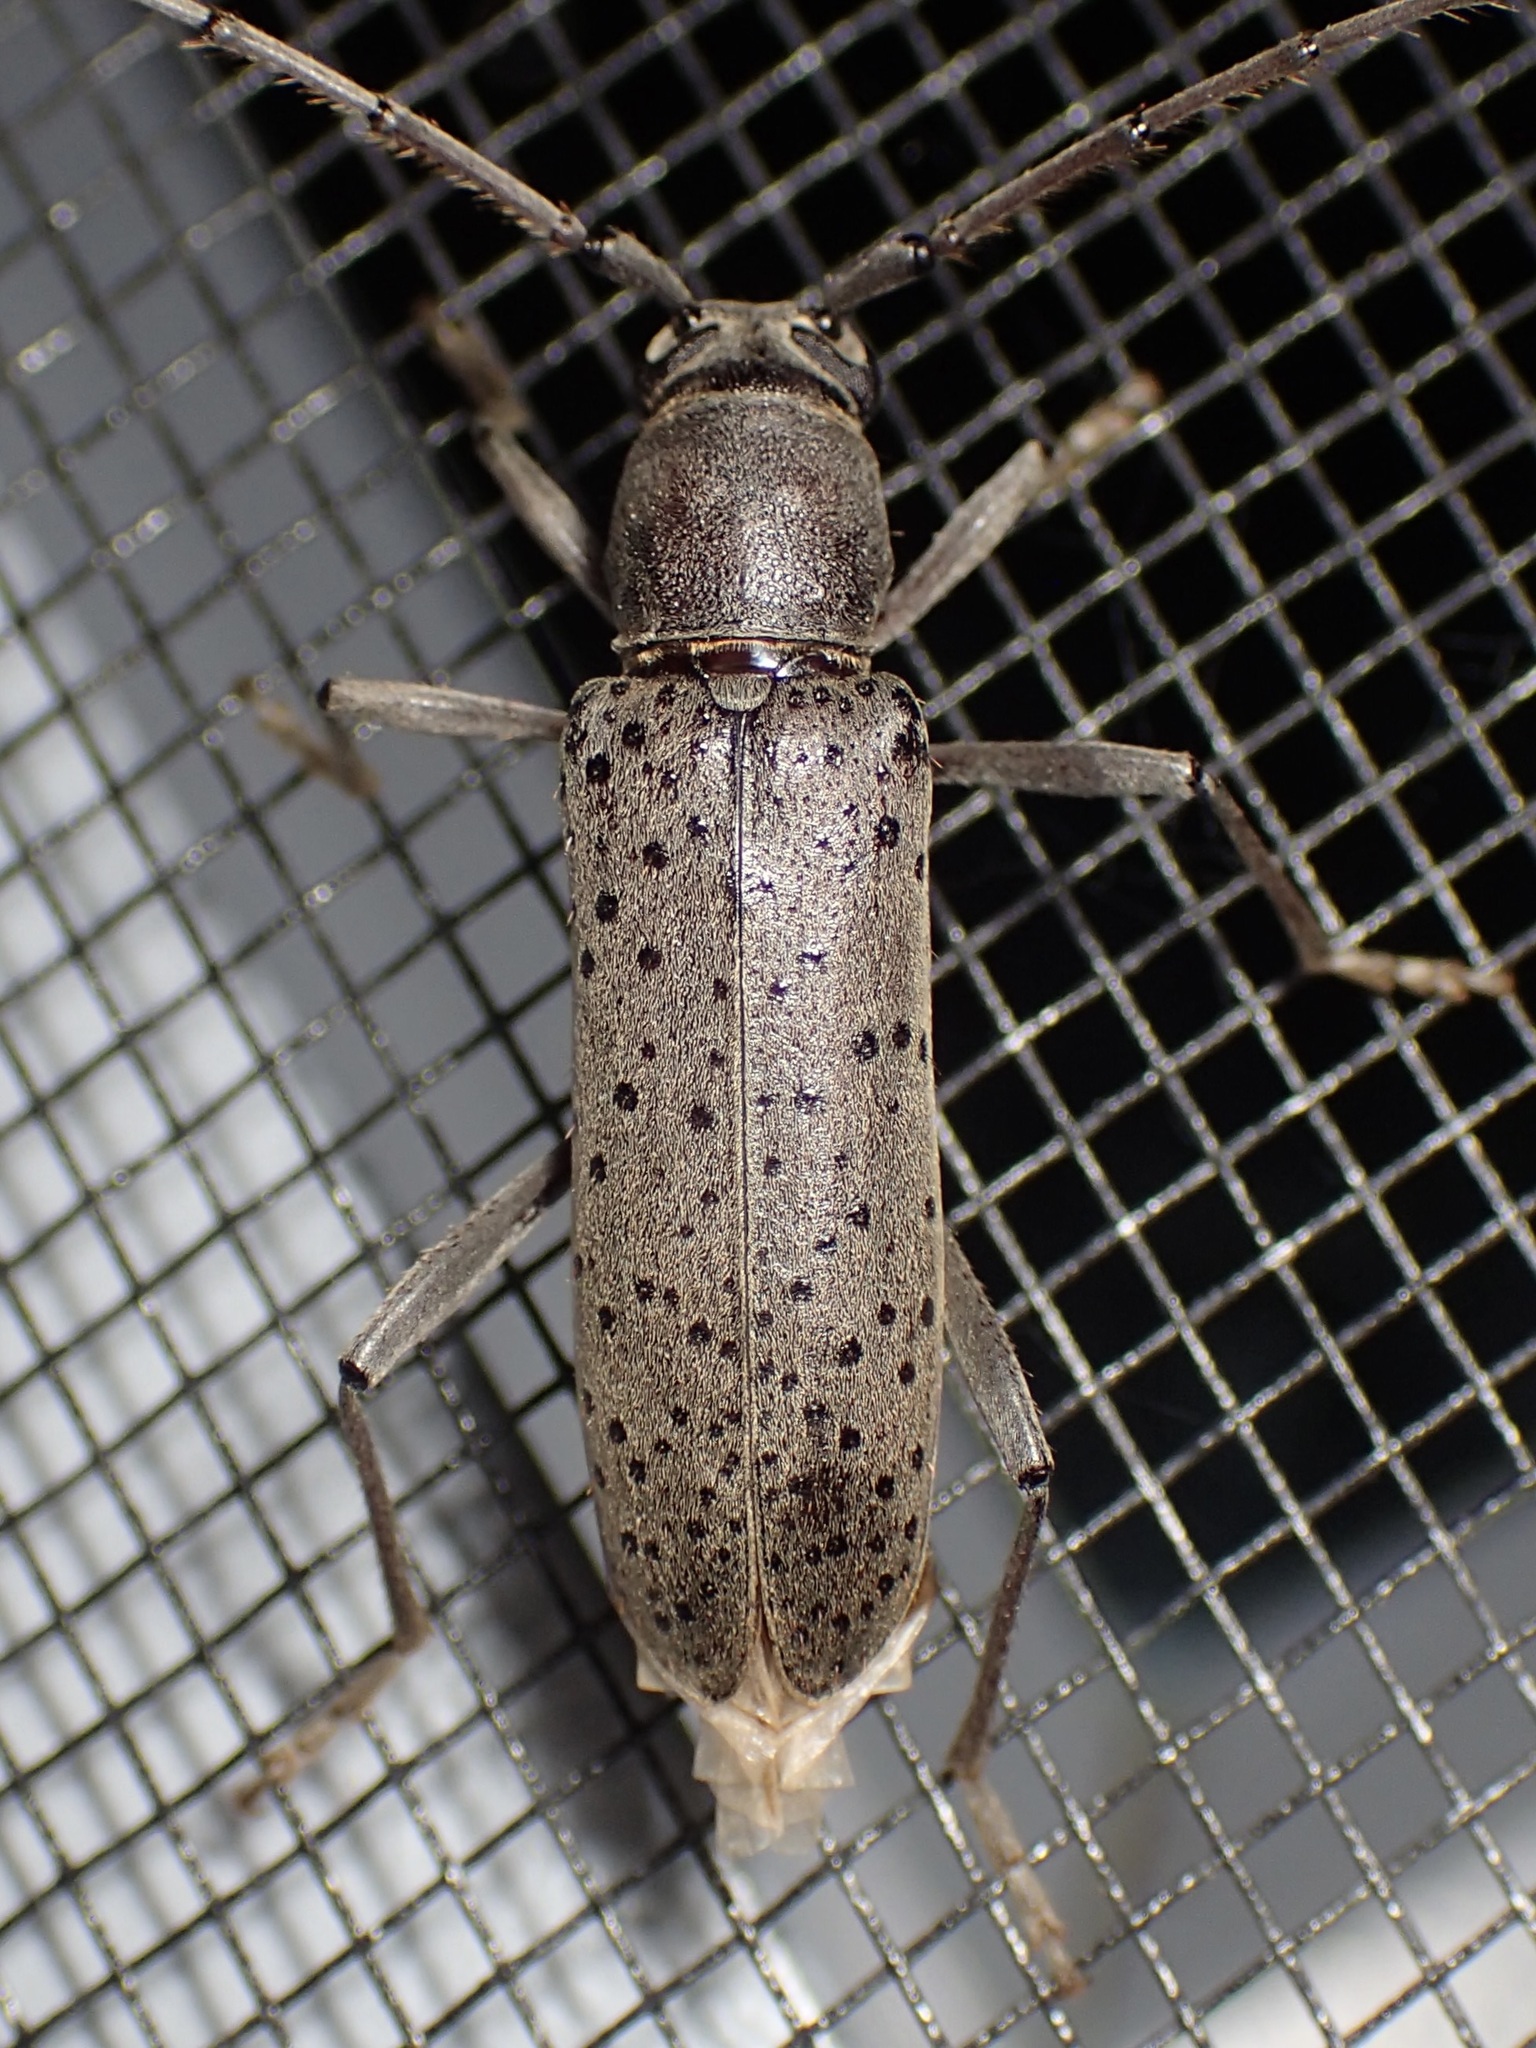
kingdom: Animalia
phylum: Arthropoda
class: Insecta
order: Coleoptera
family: Cerambycidae
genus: Osmidus
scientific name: Osmidus guttatus
